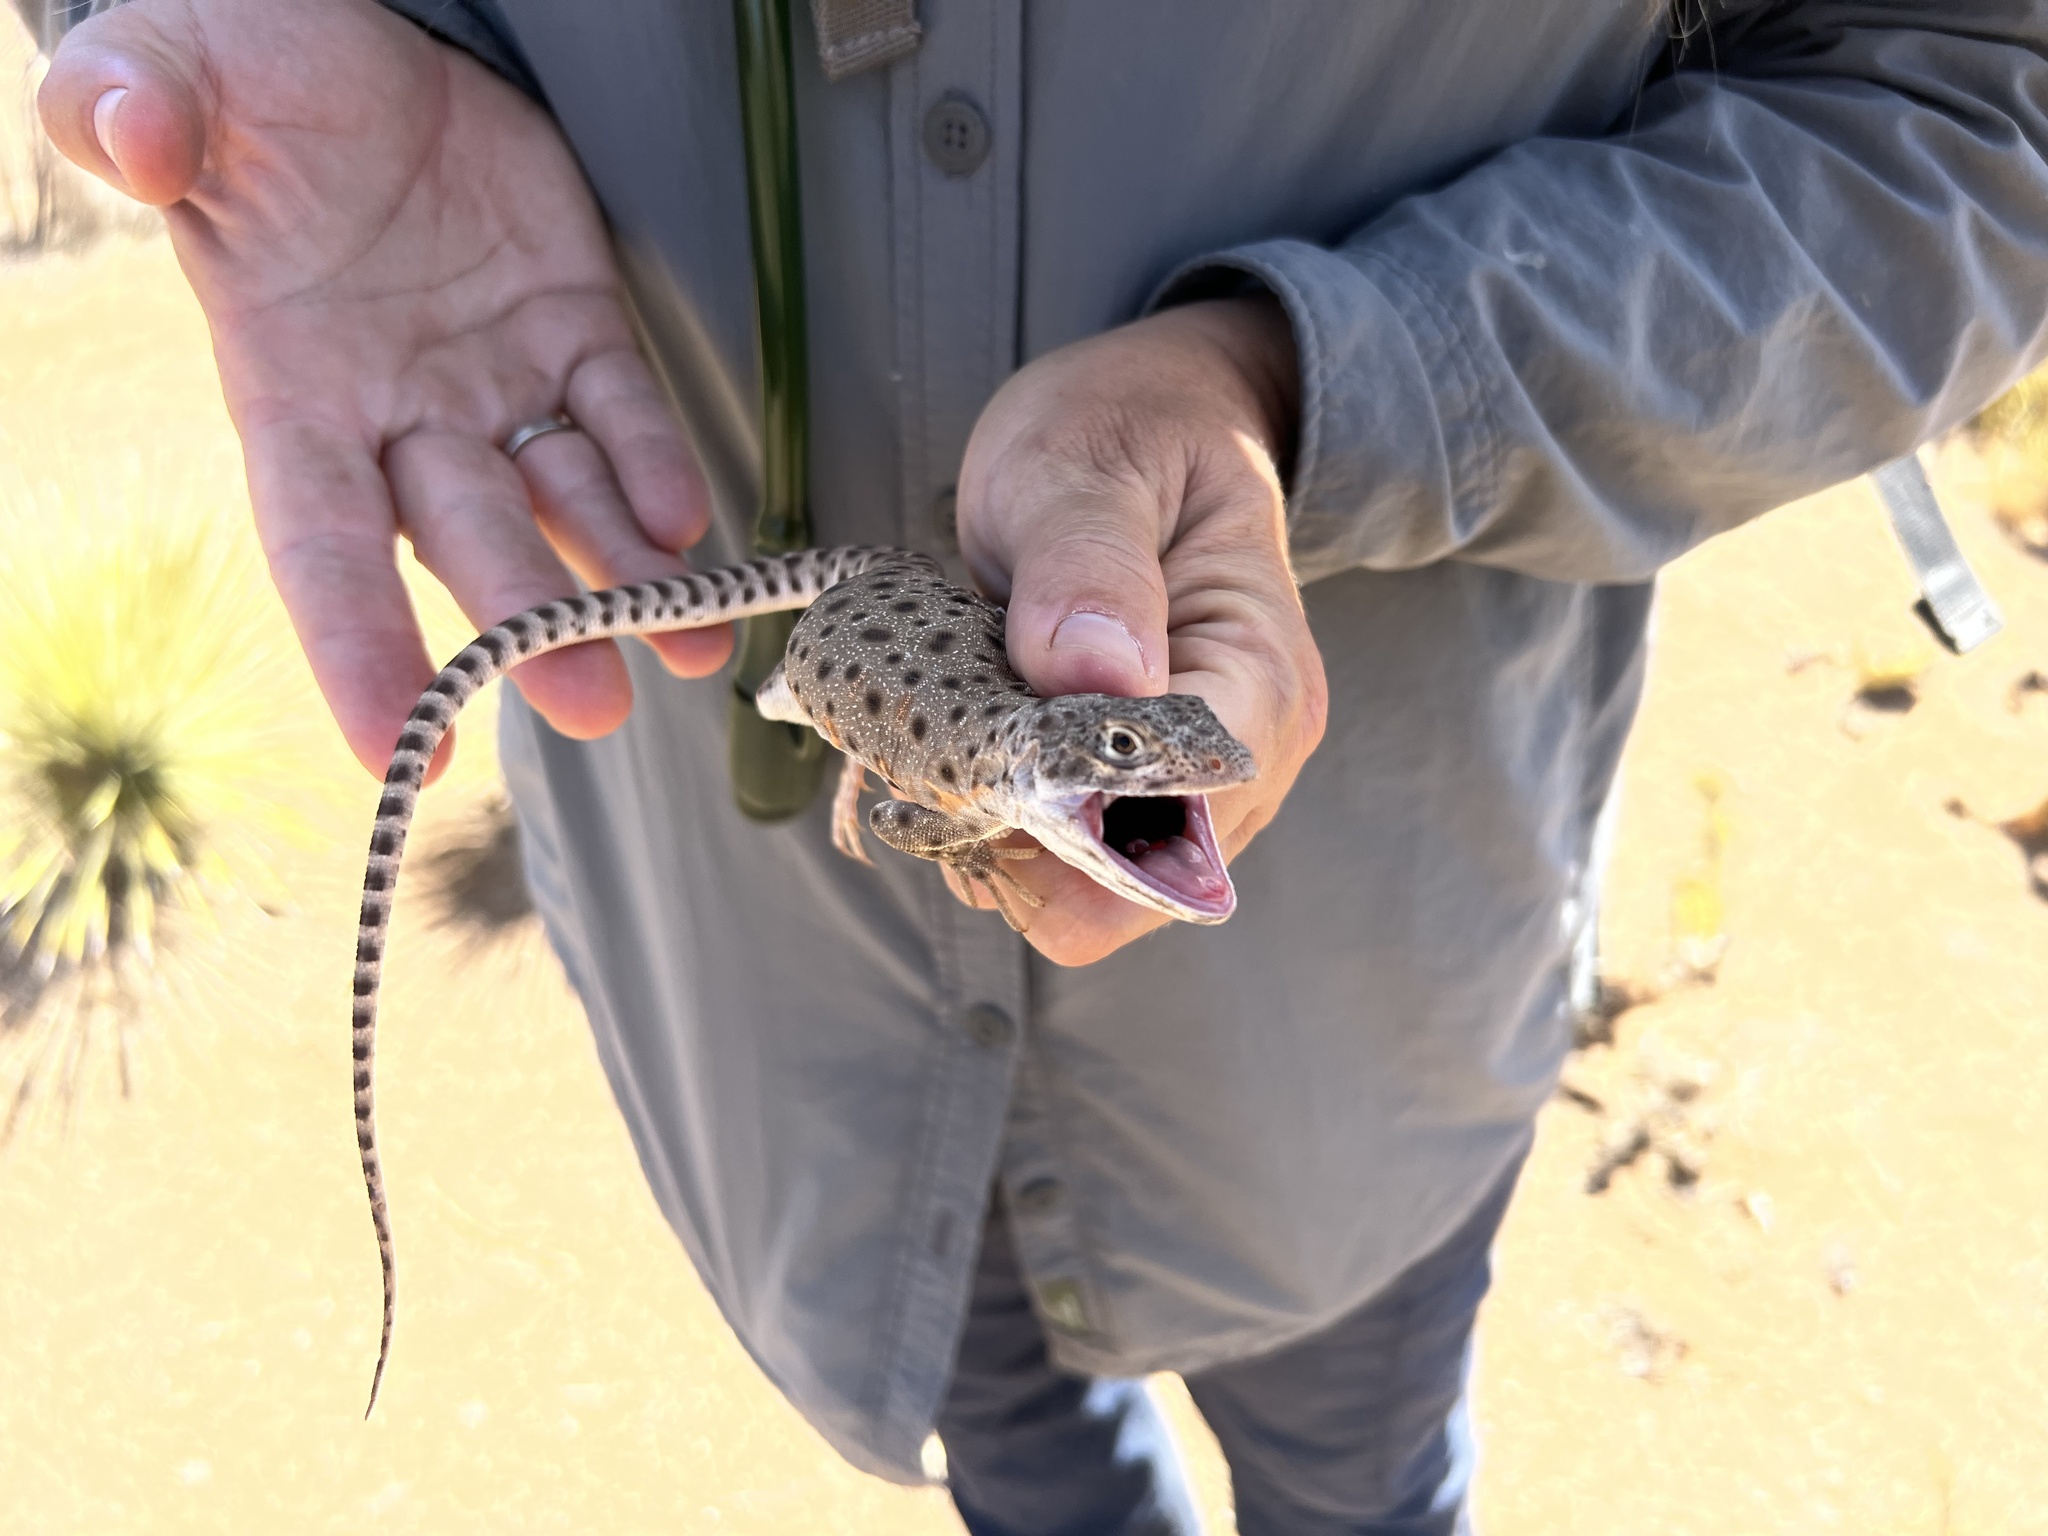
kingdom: Animalia
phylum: Chordata
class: Squamata
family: Crotaphytidae
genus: Gambelia
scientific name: Gambelia wislizenii
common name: Longnose leopard lizard
